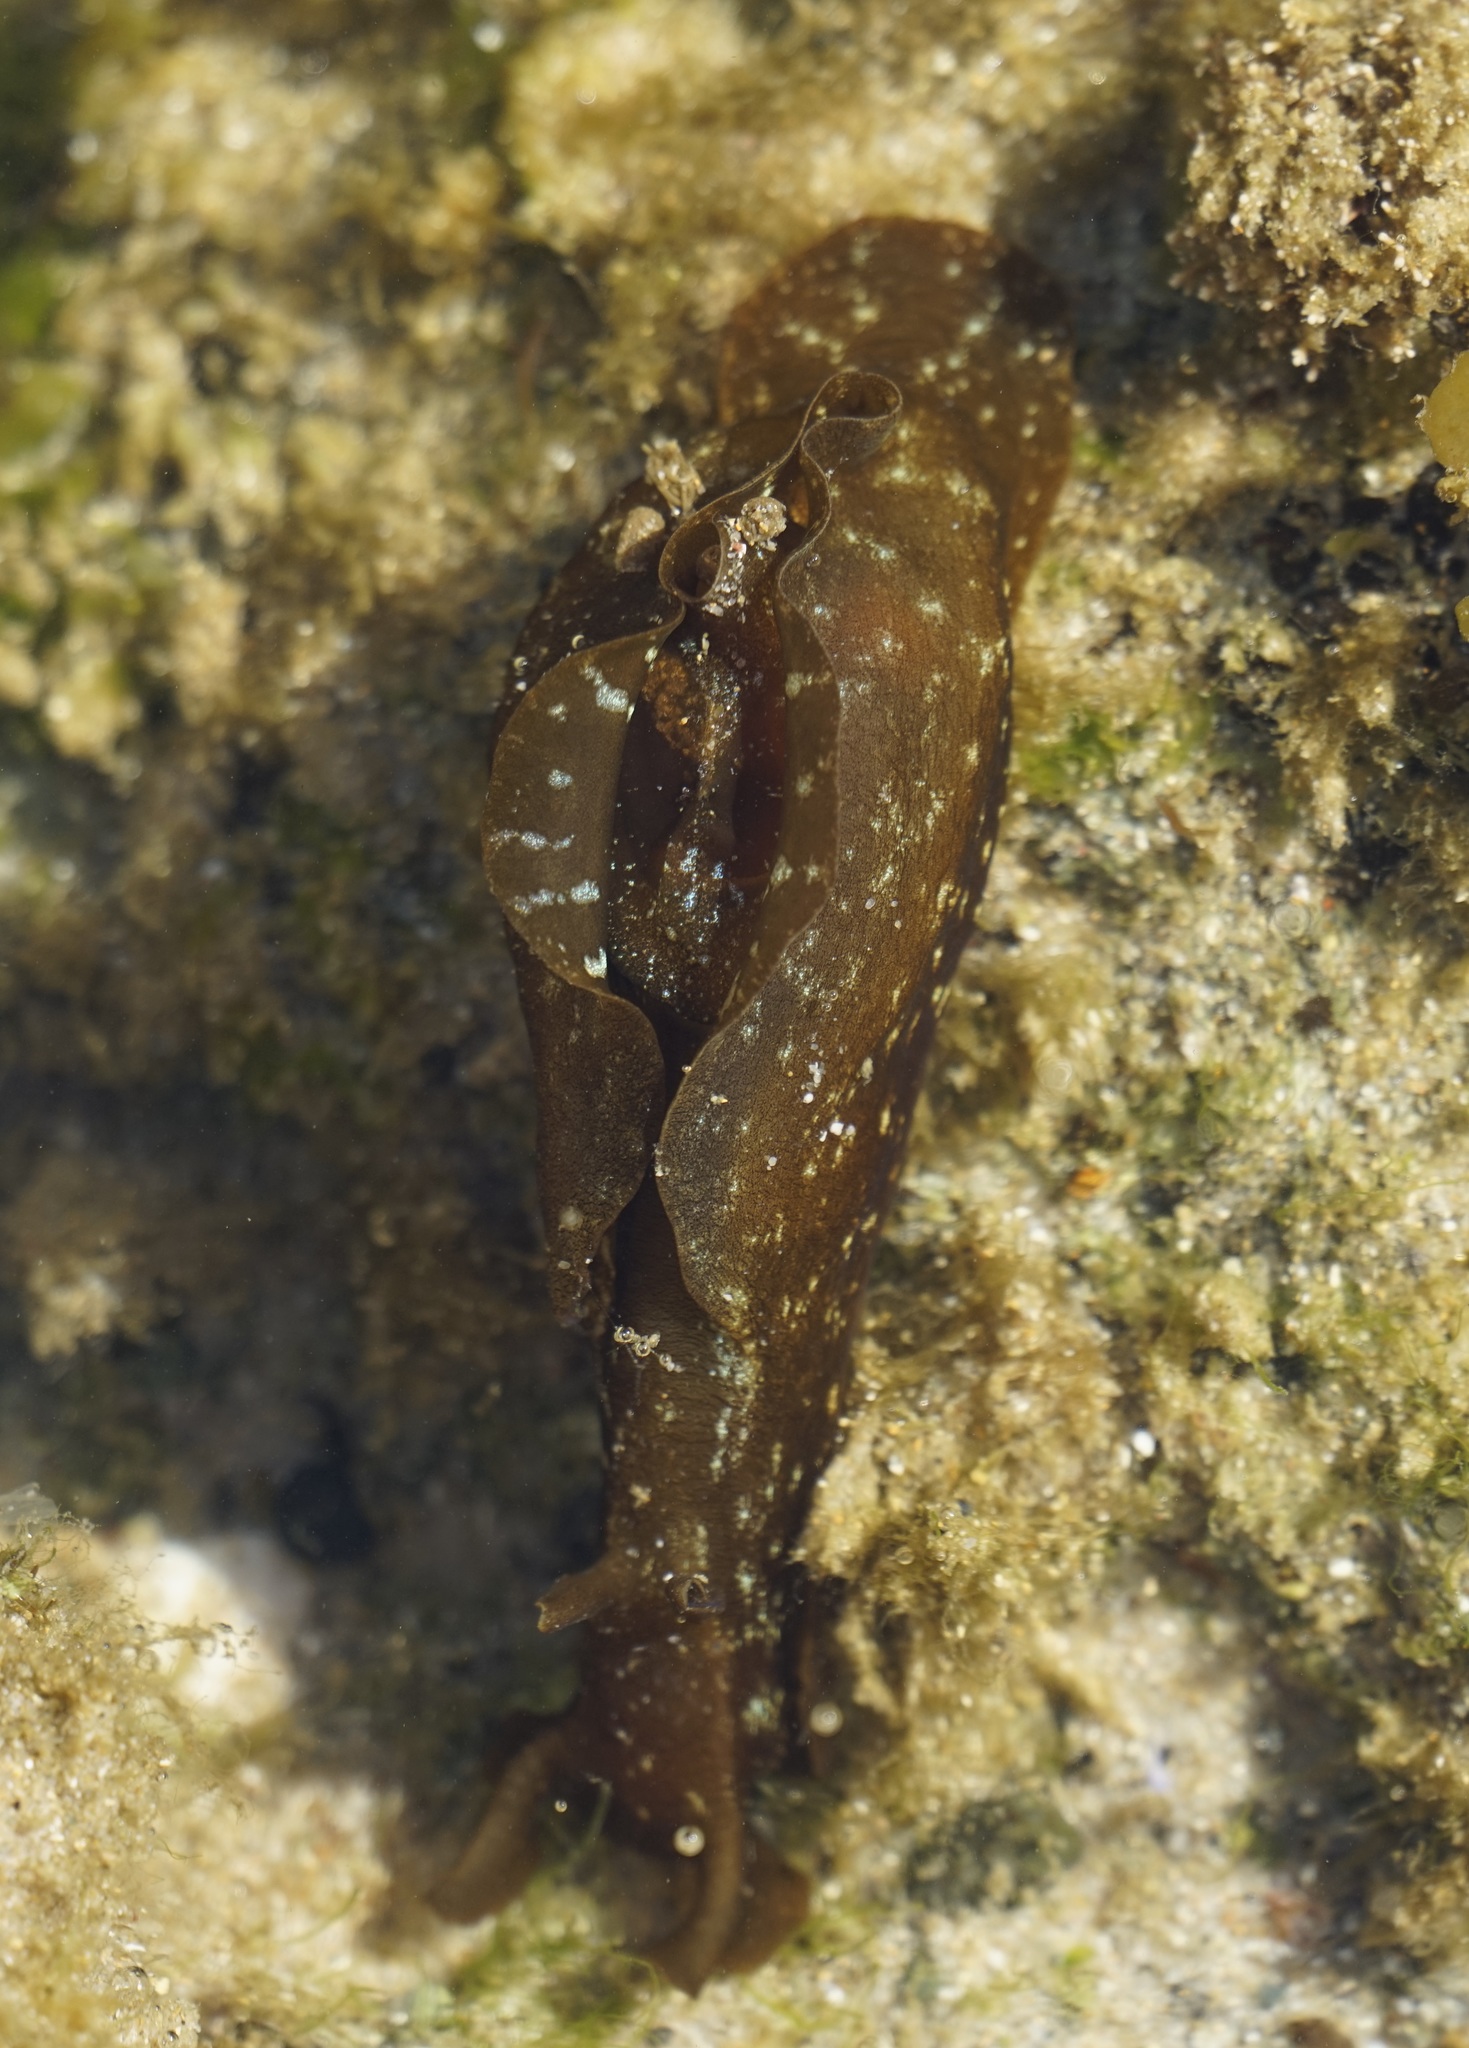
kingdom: Animalia
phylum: Mollusca
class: Gastropoda
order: Aplysiida
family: Aplysiidae
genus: Aplysia
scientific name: Aplysia juliana
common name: Walking sea hare
